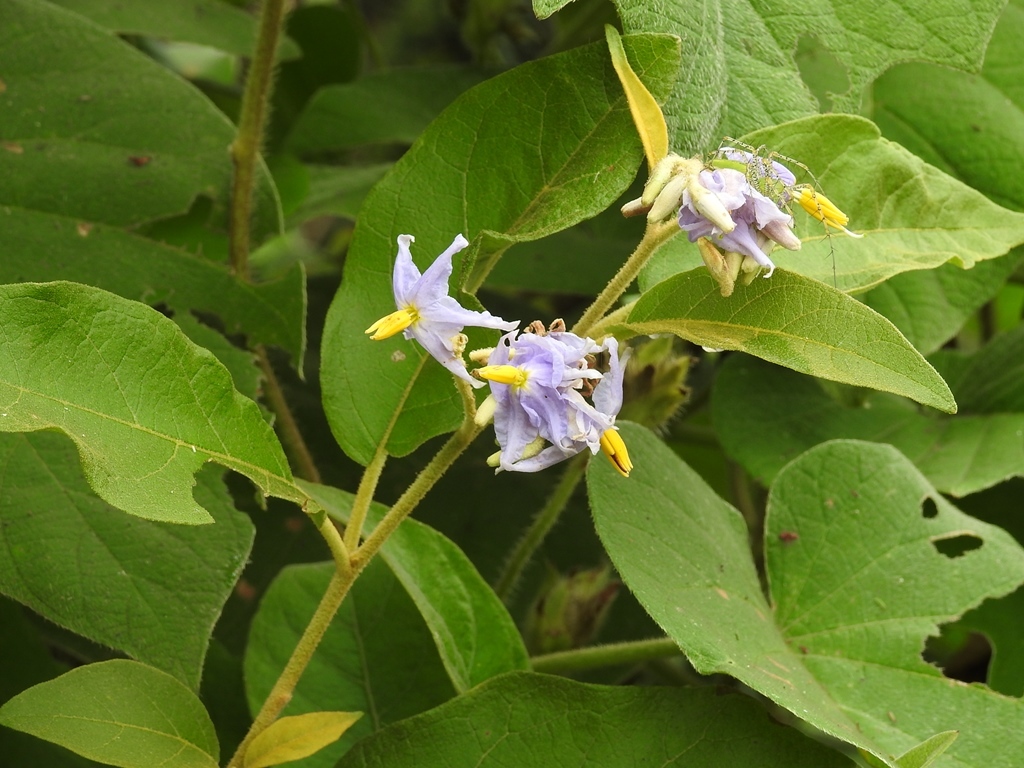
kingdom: Plantae
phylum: Tracheophyta
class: Magnoliopsida
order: Solanales
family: Solanaceae
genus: Solanum
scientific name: Solanum lanceolatum
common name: Orangeberry nightshade
